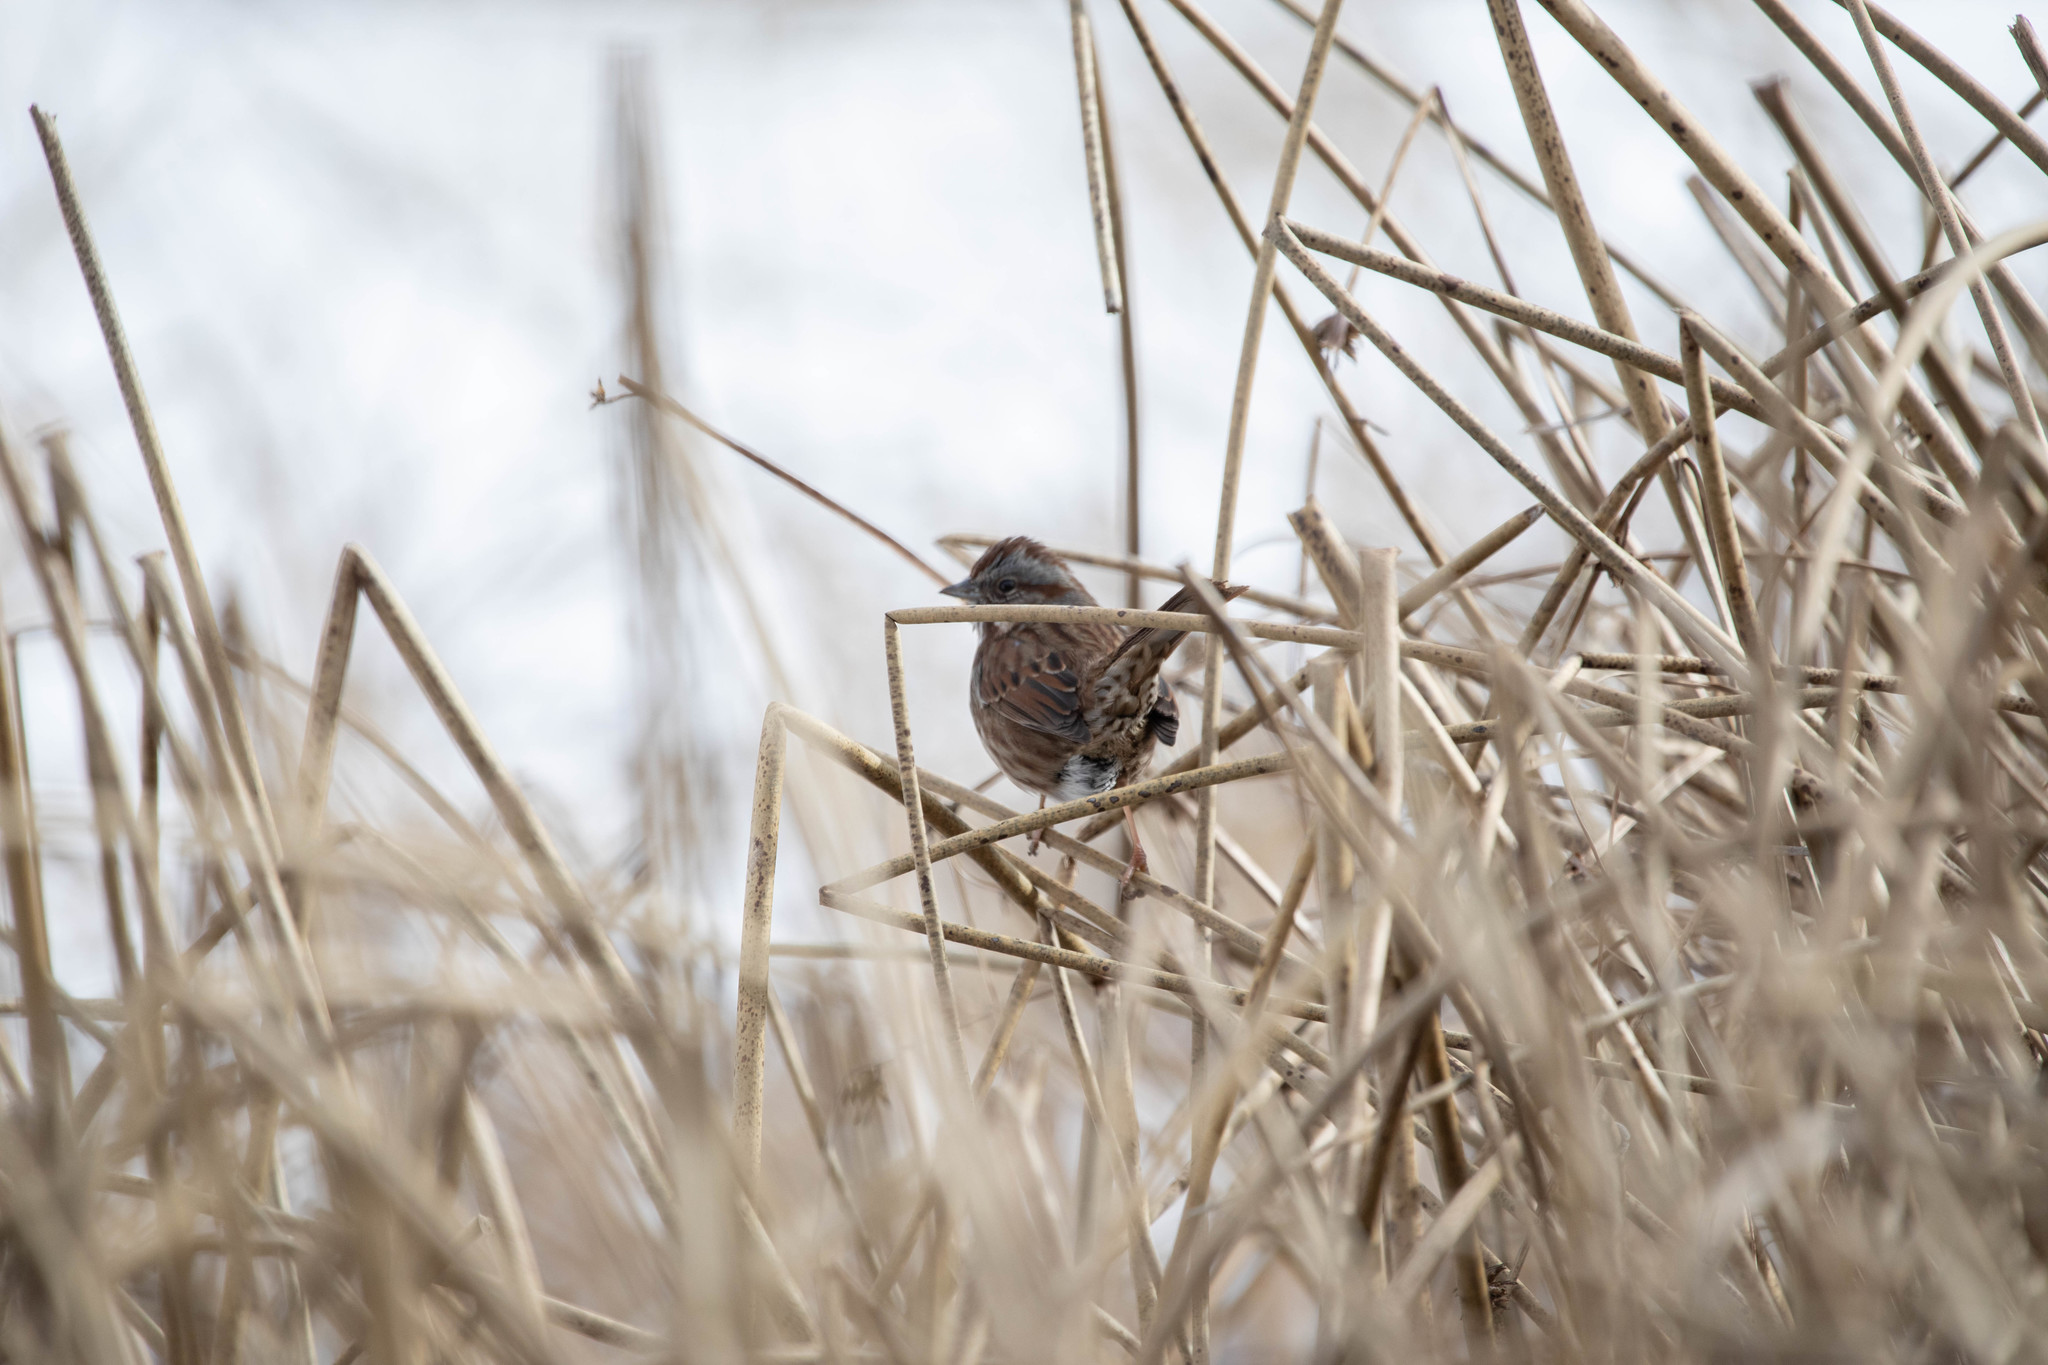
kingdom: Animalia
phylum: Chordata
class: Aves
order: Passeriformes
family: Passerellidae
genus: Melospiza
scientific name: Melospiza melodia
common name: Song sparrow
